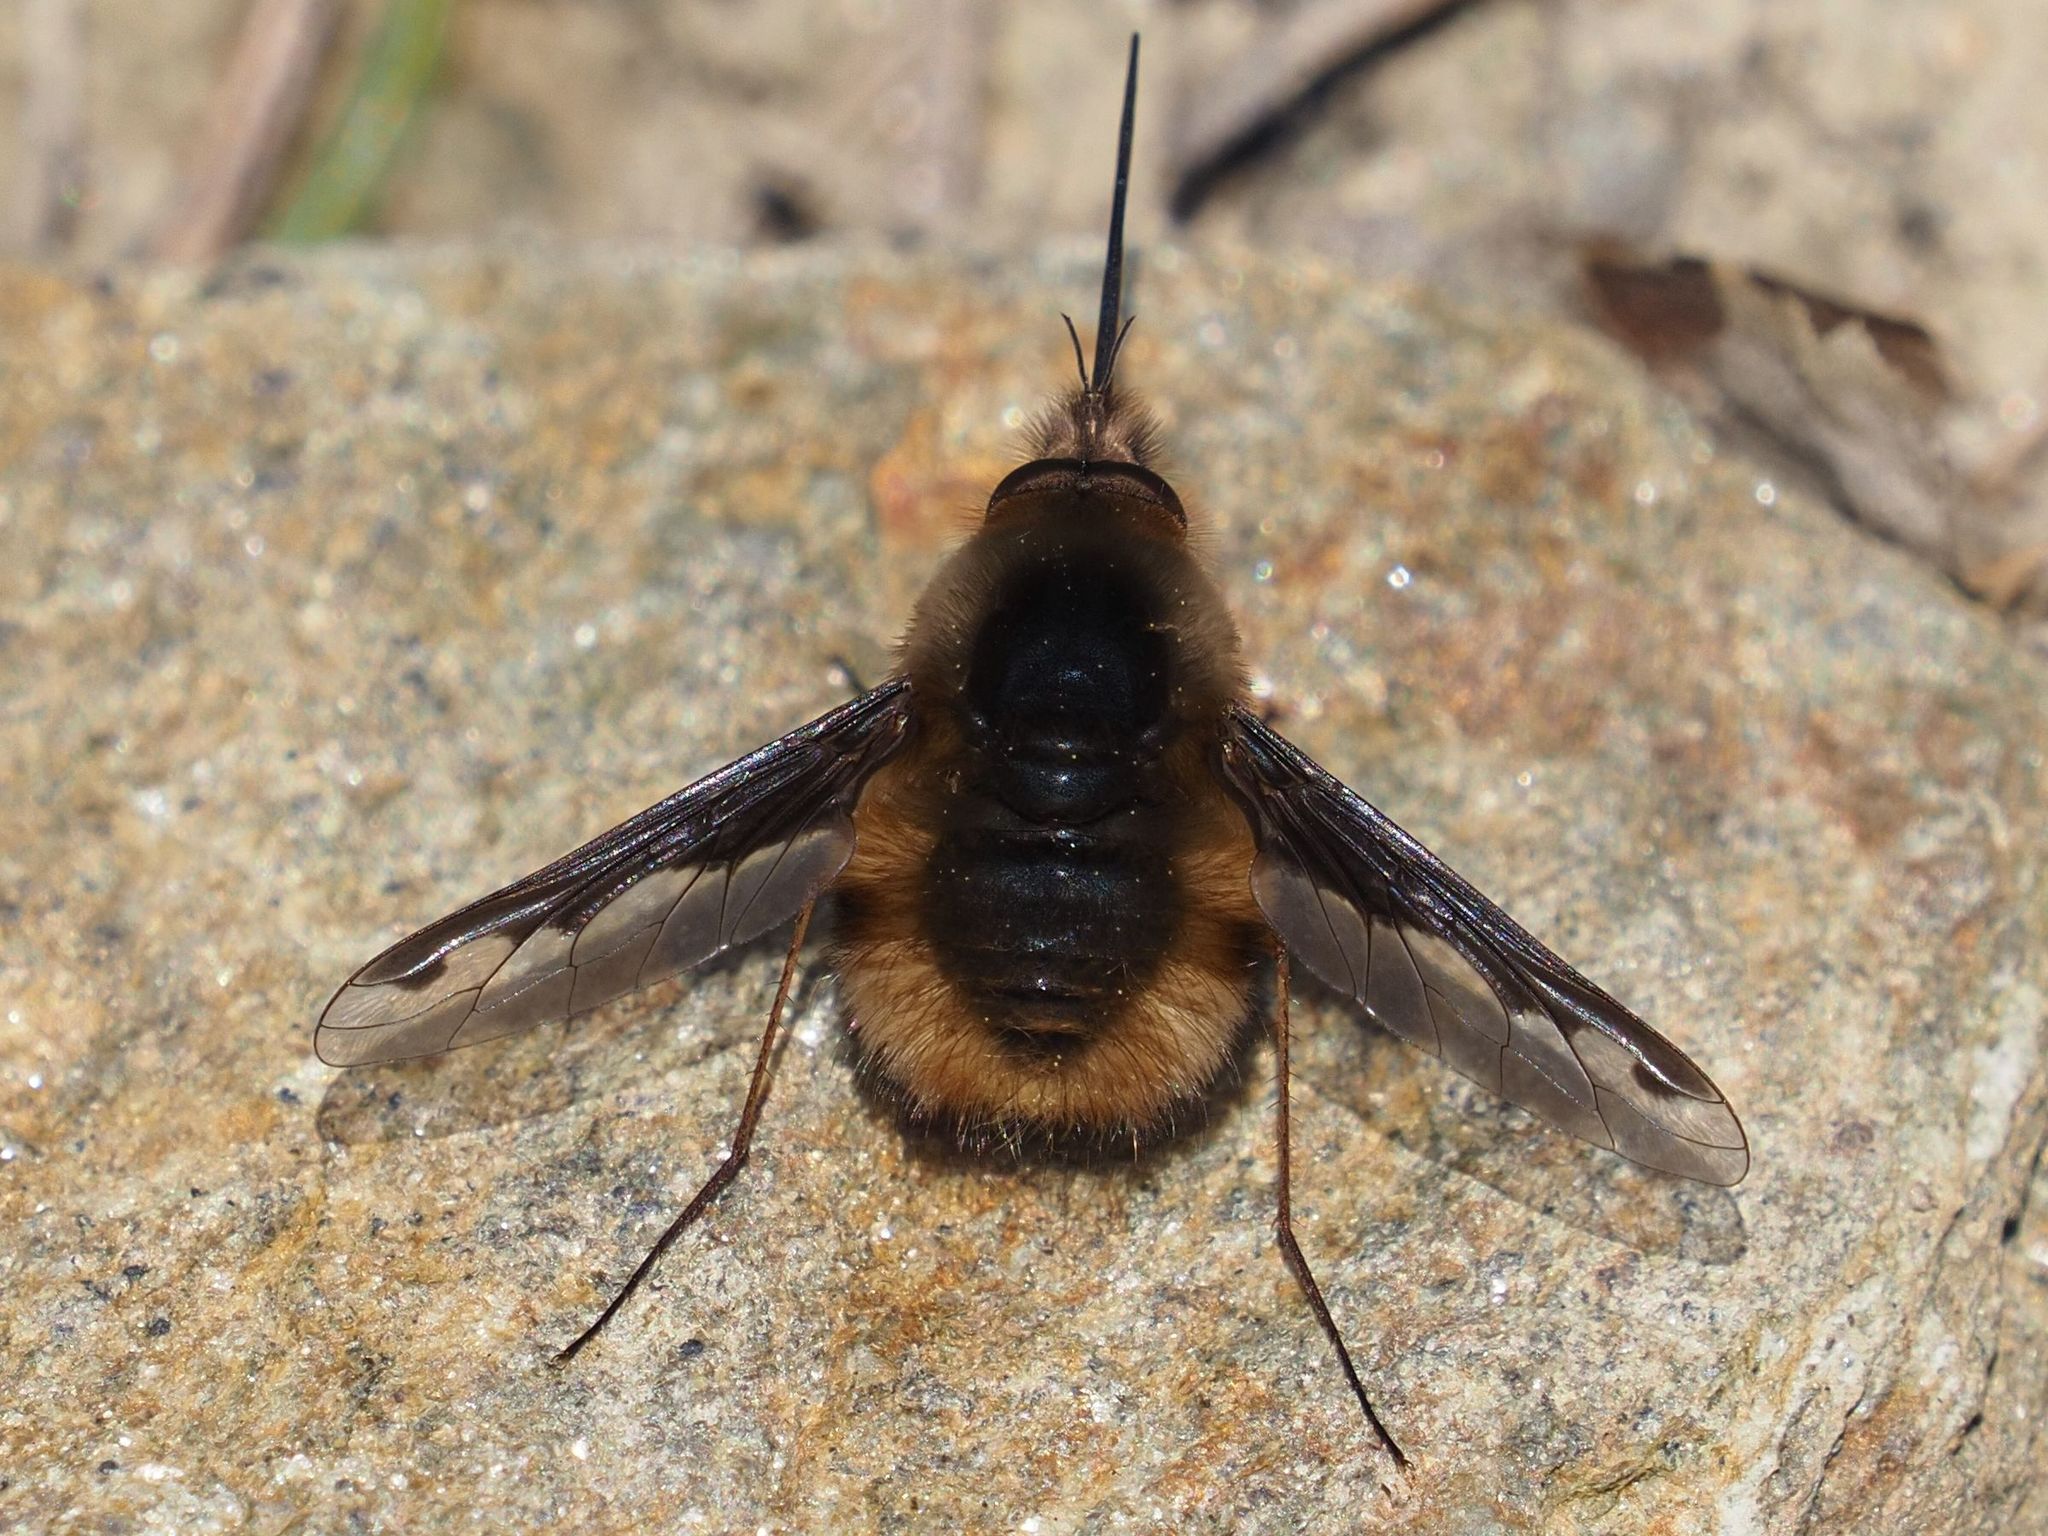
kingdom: Animalia
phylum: Arthropoda
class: Insecta
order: Diptera
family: Bombyliidae
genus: Bombylius
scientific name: Bombylius major
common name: Bee fly
